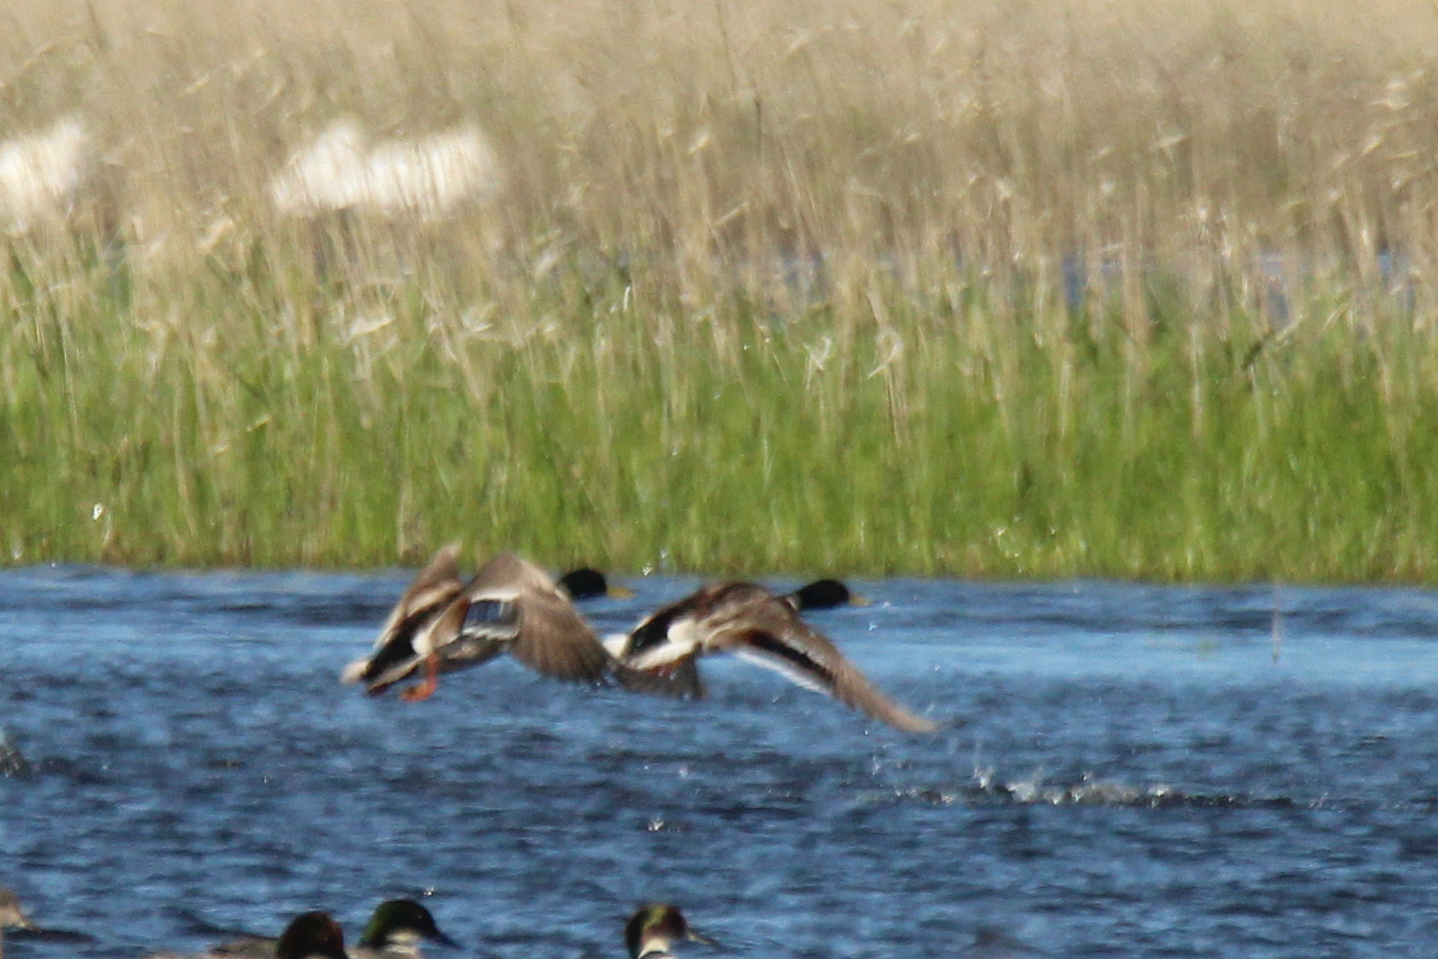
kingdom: Animalia
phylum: Chordata
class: Aves
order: Anseriformes
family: Anatidae
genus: Anas
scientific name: Anas platyrhynchos
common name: Mallard
